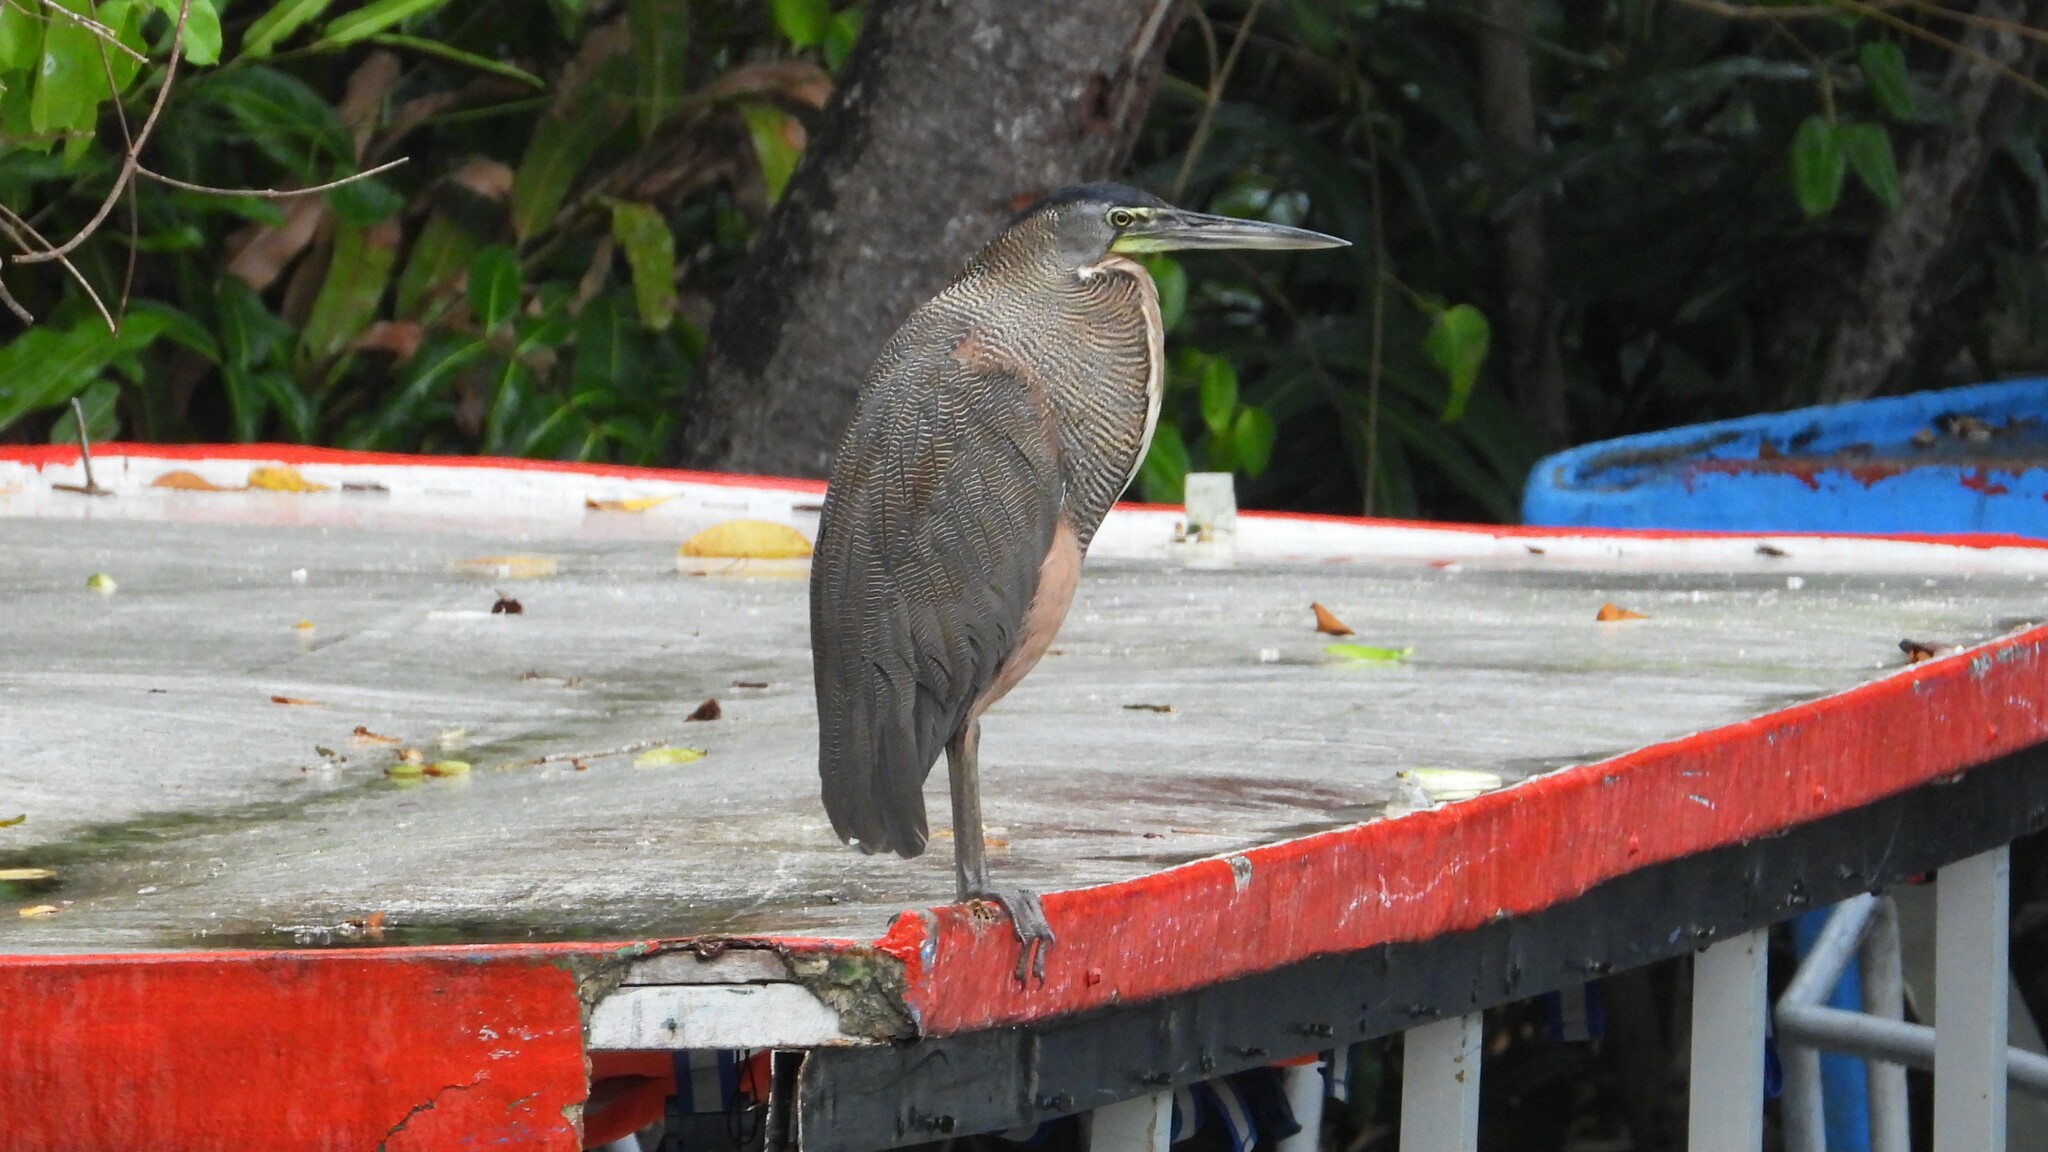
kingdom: Animalia
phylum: Chordata
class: Aves
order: Pelecaniformes
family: Ardeidae
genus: Tigrisoma
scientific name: Tigrisoma mexicanum
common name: Bare-throated tiger-heron
